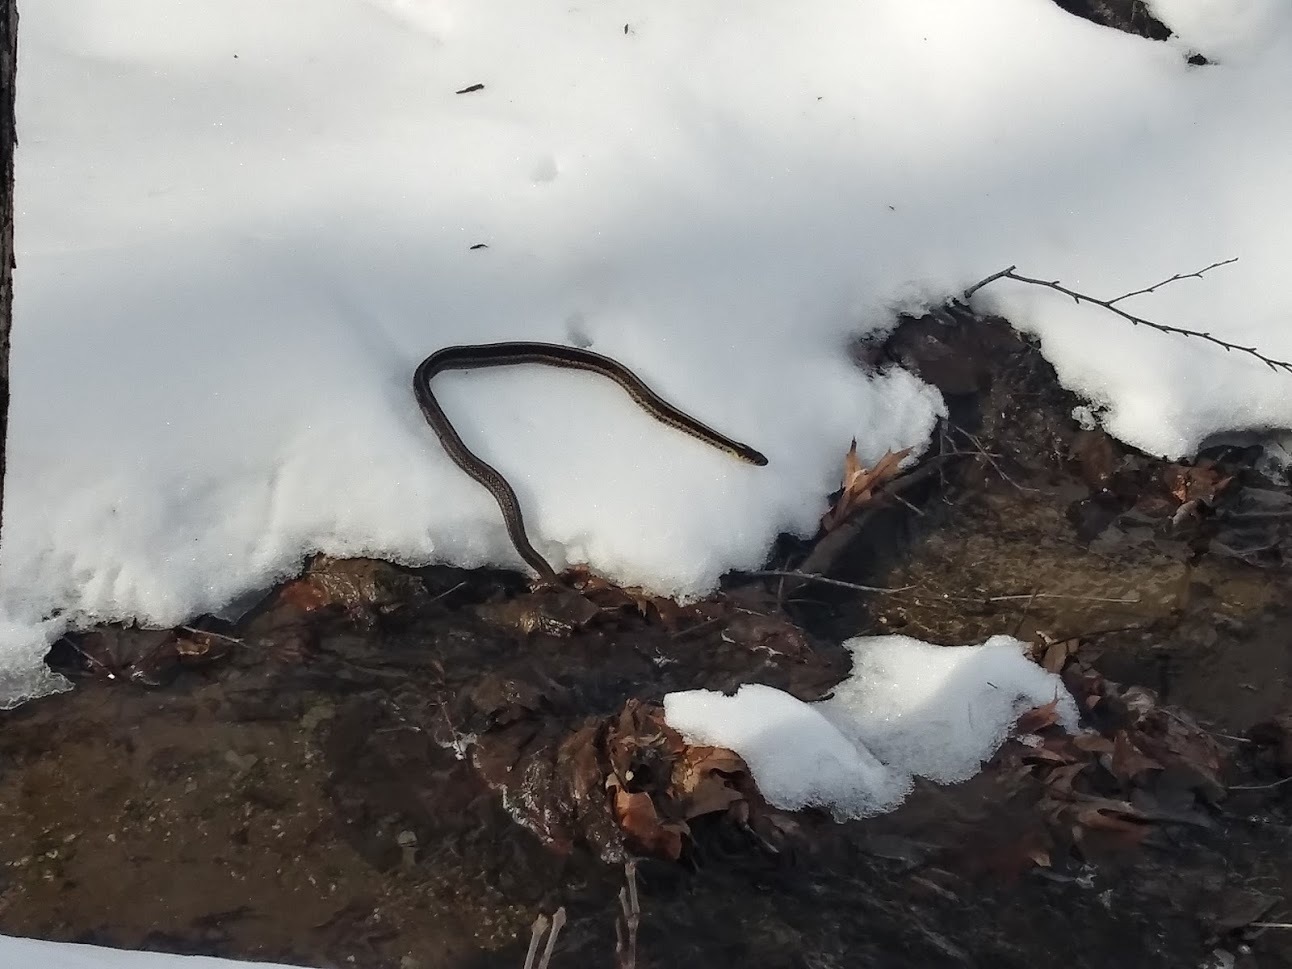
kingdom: Animalia
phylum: Chordata
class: Squamata
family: Colubridae
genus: Thamnophis
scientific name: Thamnophis sirtalis
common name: Common garter snake
